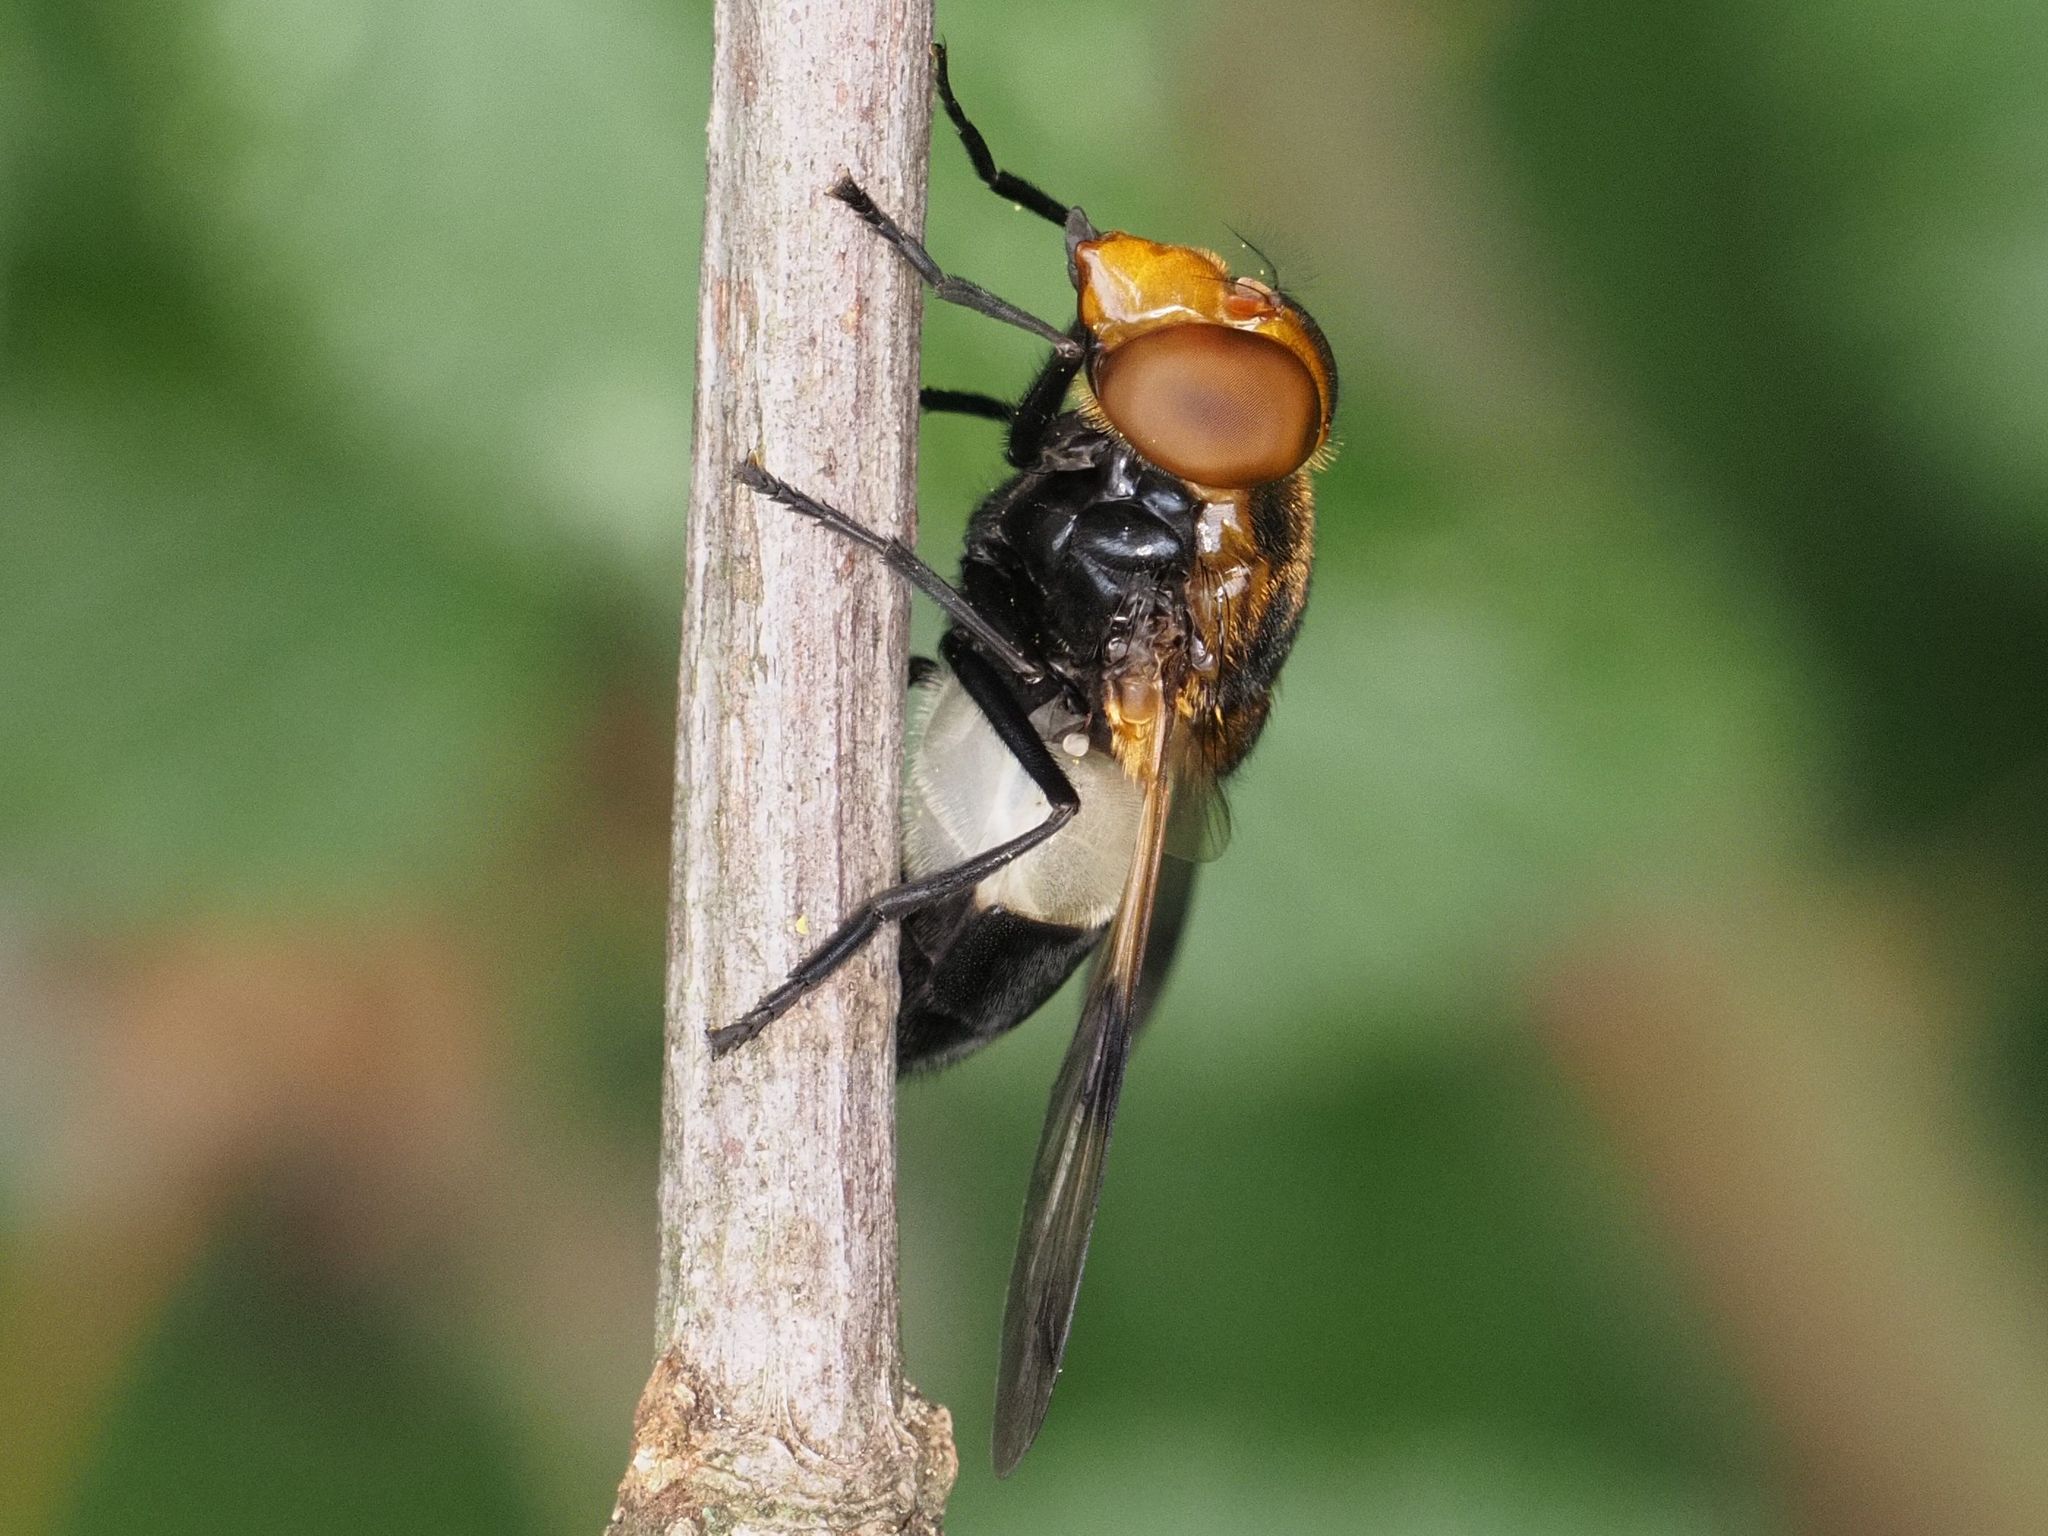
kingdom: Animalia
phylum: Arthropoda
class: Insecta
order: Diptera
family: Syrphidae
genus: Volucella
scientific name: Volucella pellucens
